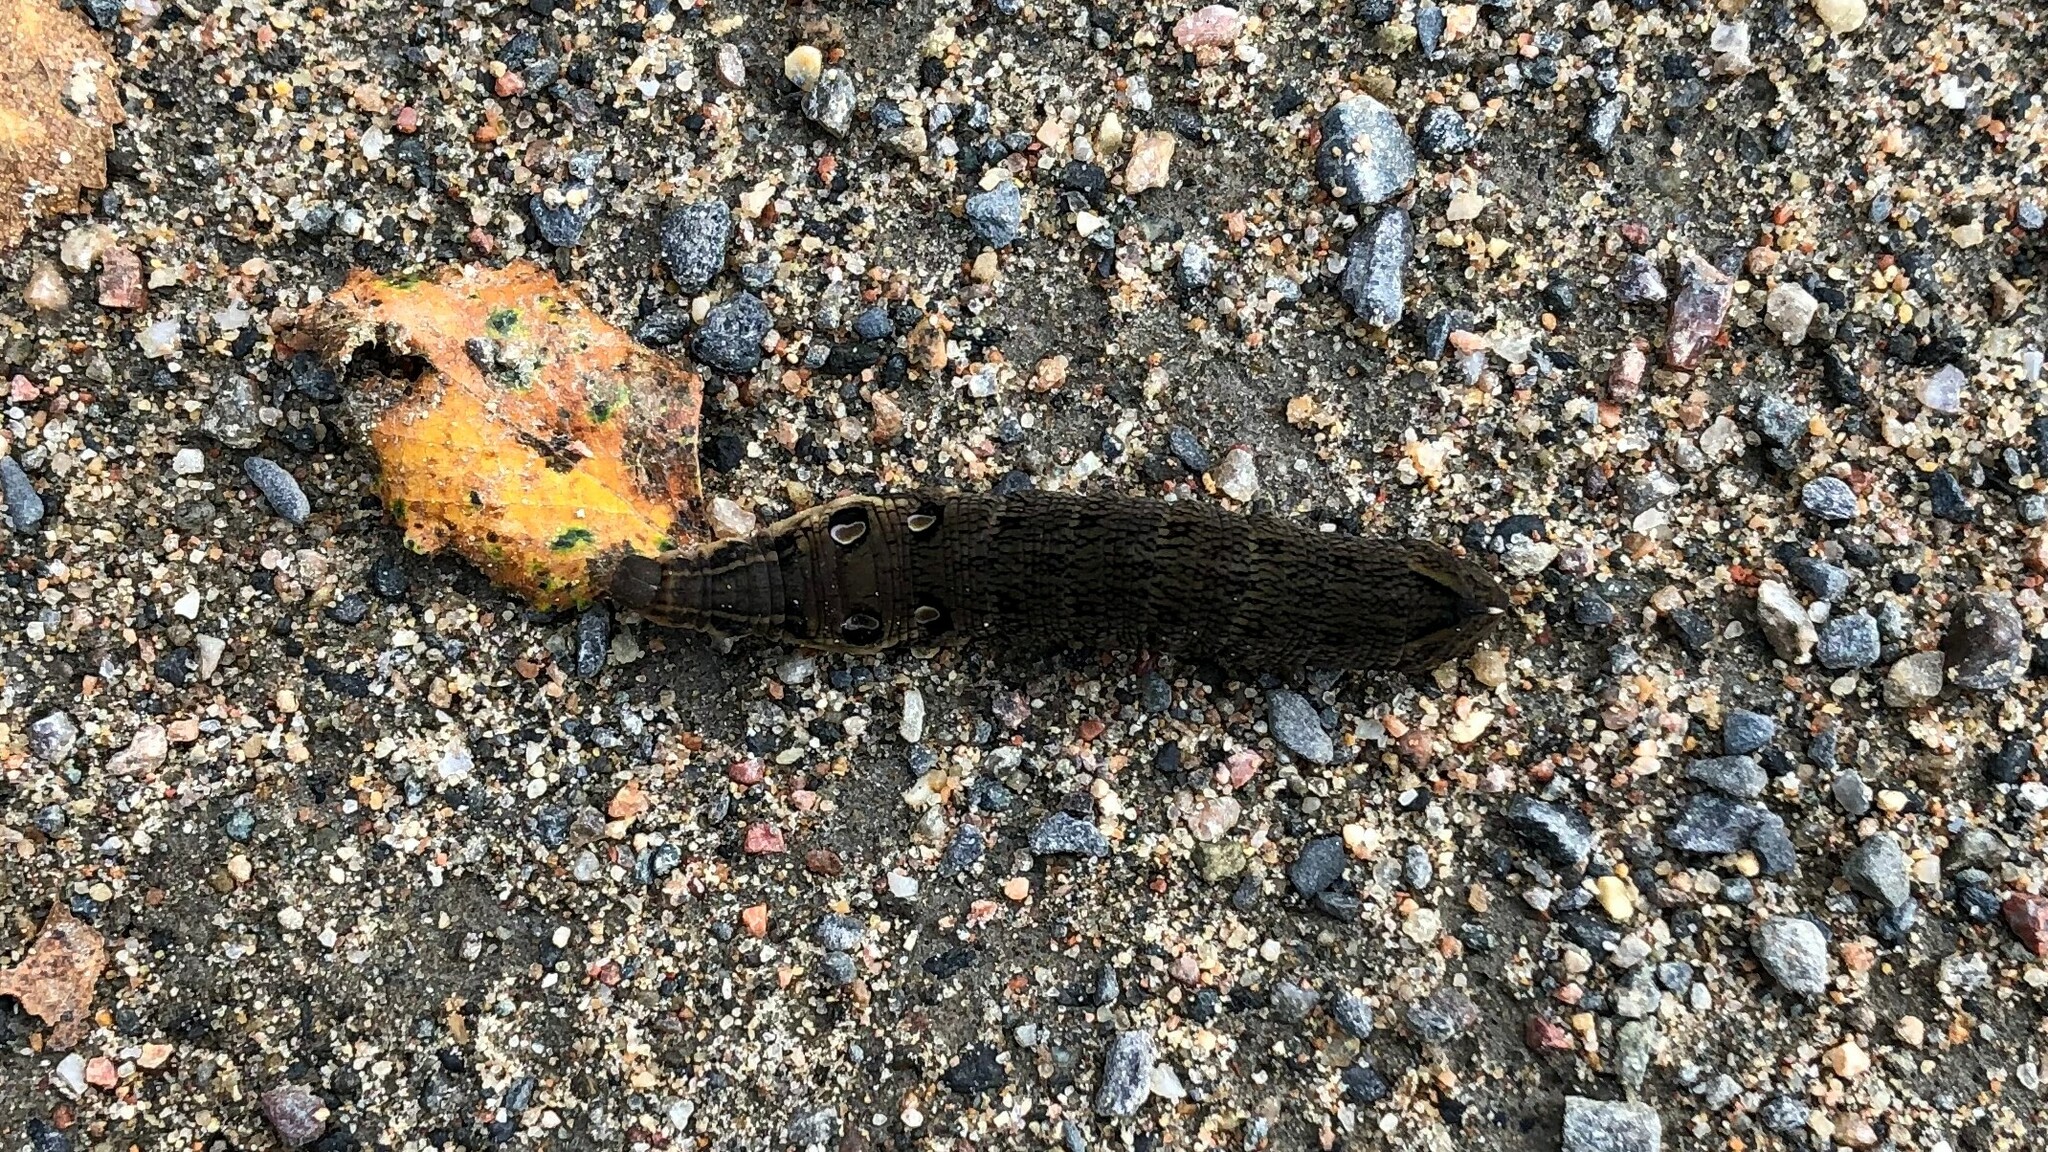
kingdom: Animalia
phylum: Arthropoda
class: Insecta
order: Lepidoptera
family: Sphingidae
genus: Deilephila
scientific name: Deilephila elpenor
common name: Elephant hawk-moth
